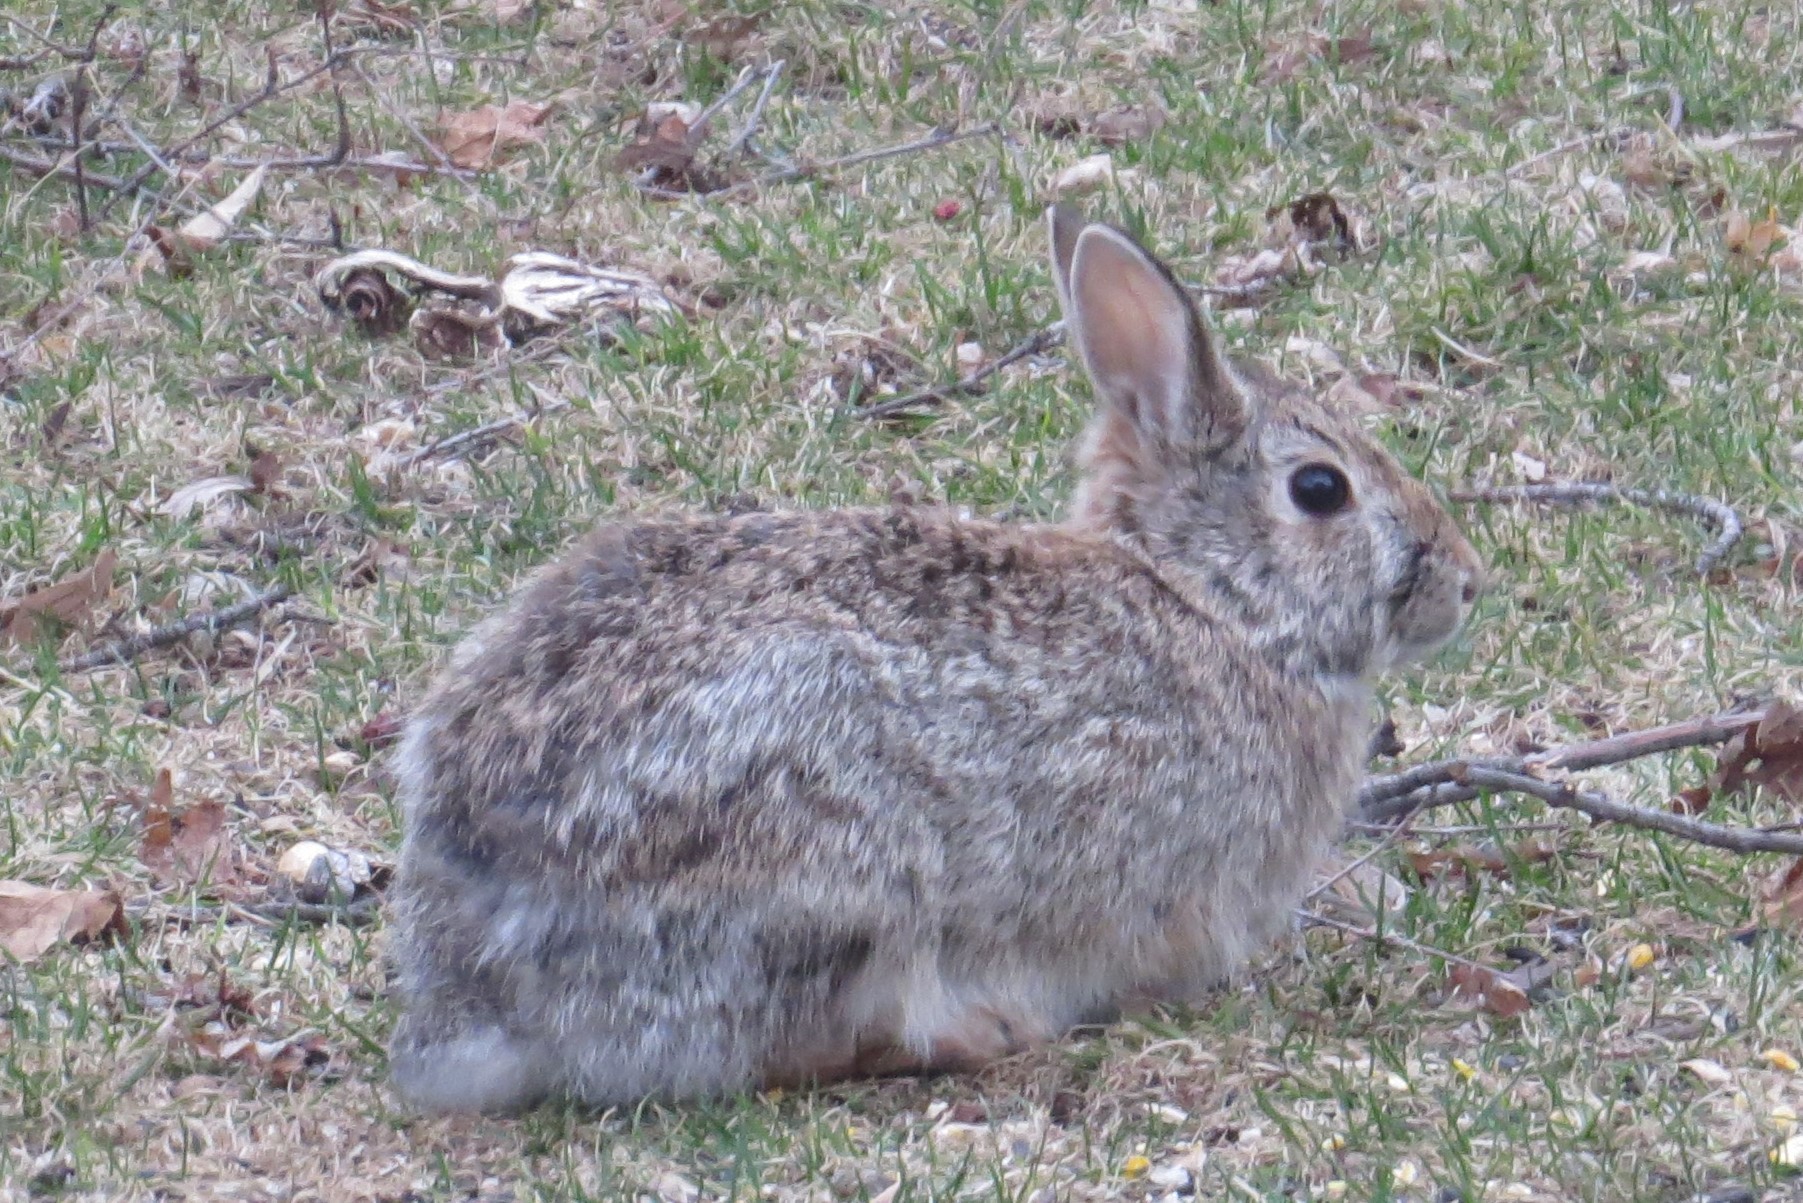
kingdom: Animalia
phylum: Chordata
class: Mammalia
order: Lagomorpha
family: Leporidae
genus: Sylvilagus
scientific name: Sylvilagus floridanus
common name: Eastern cottontail
